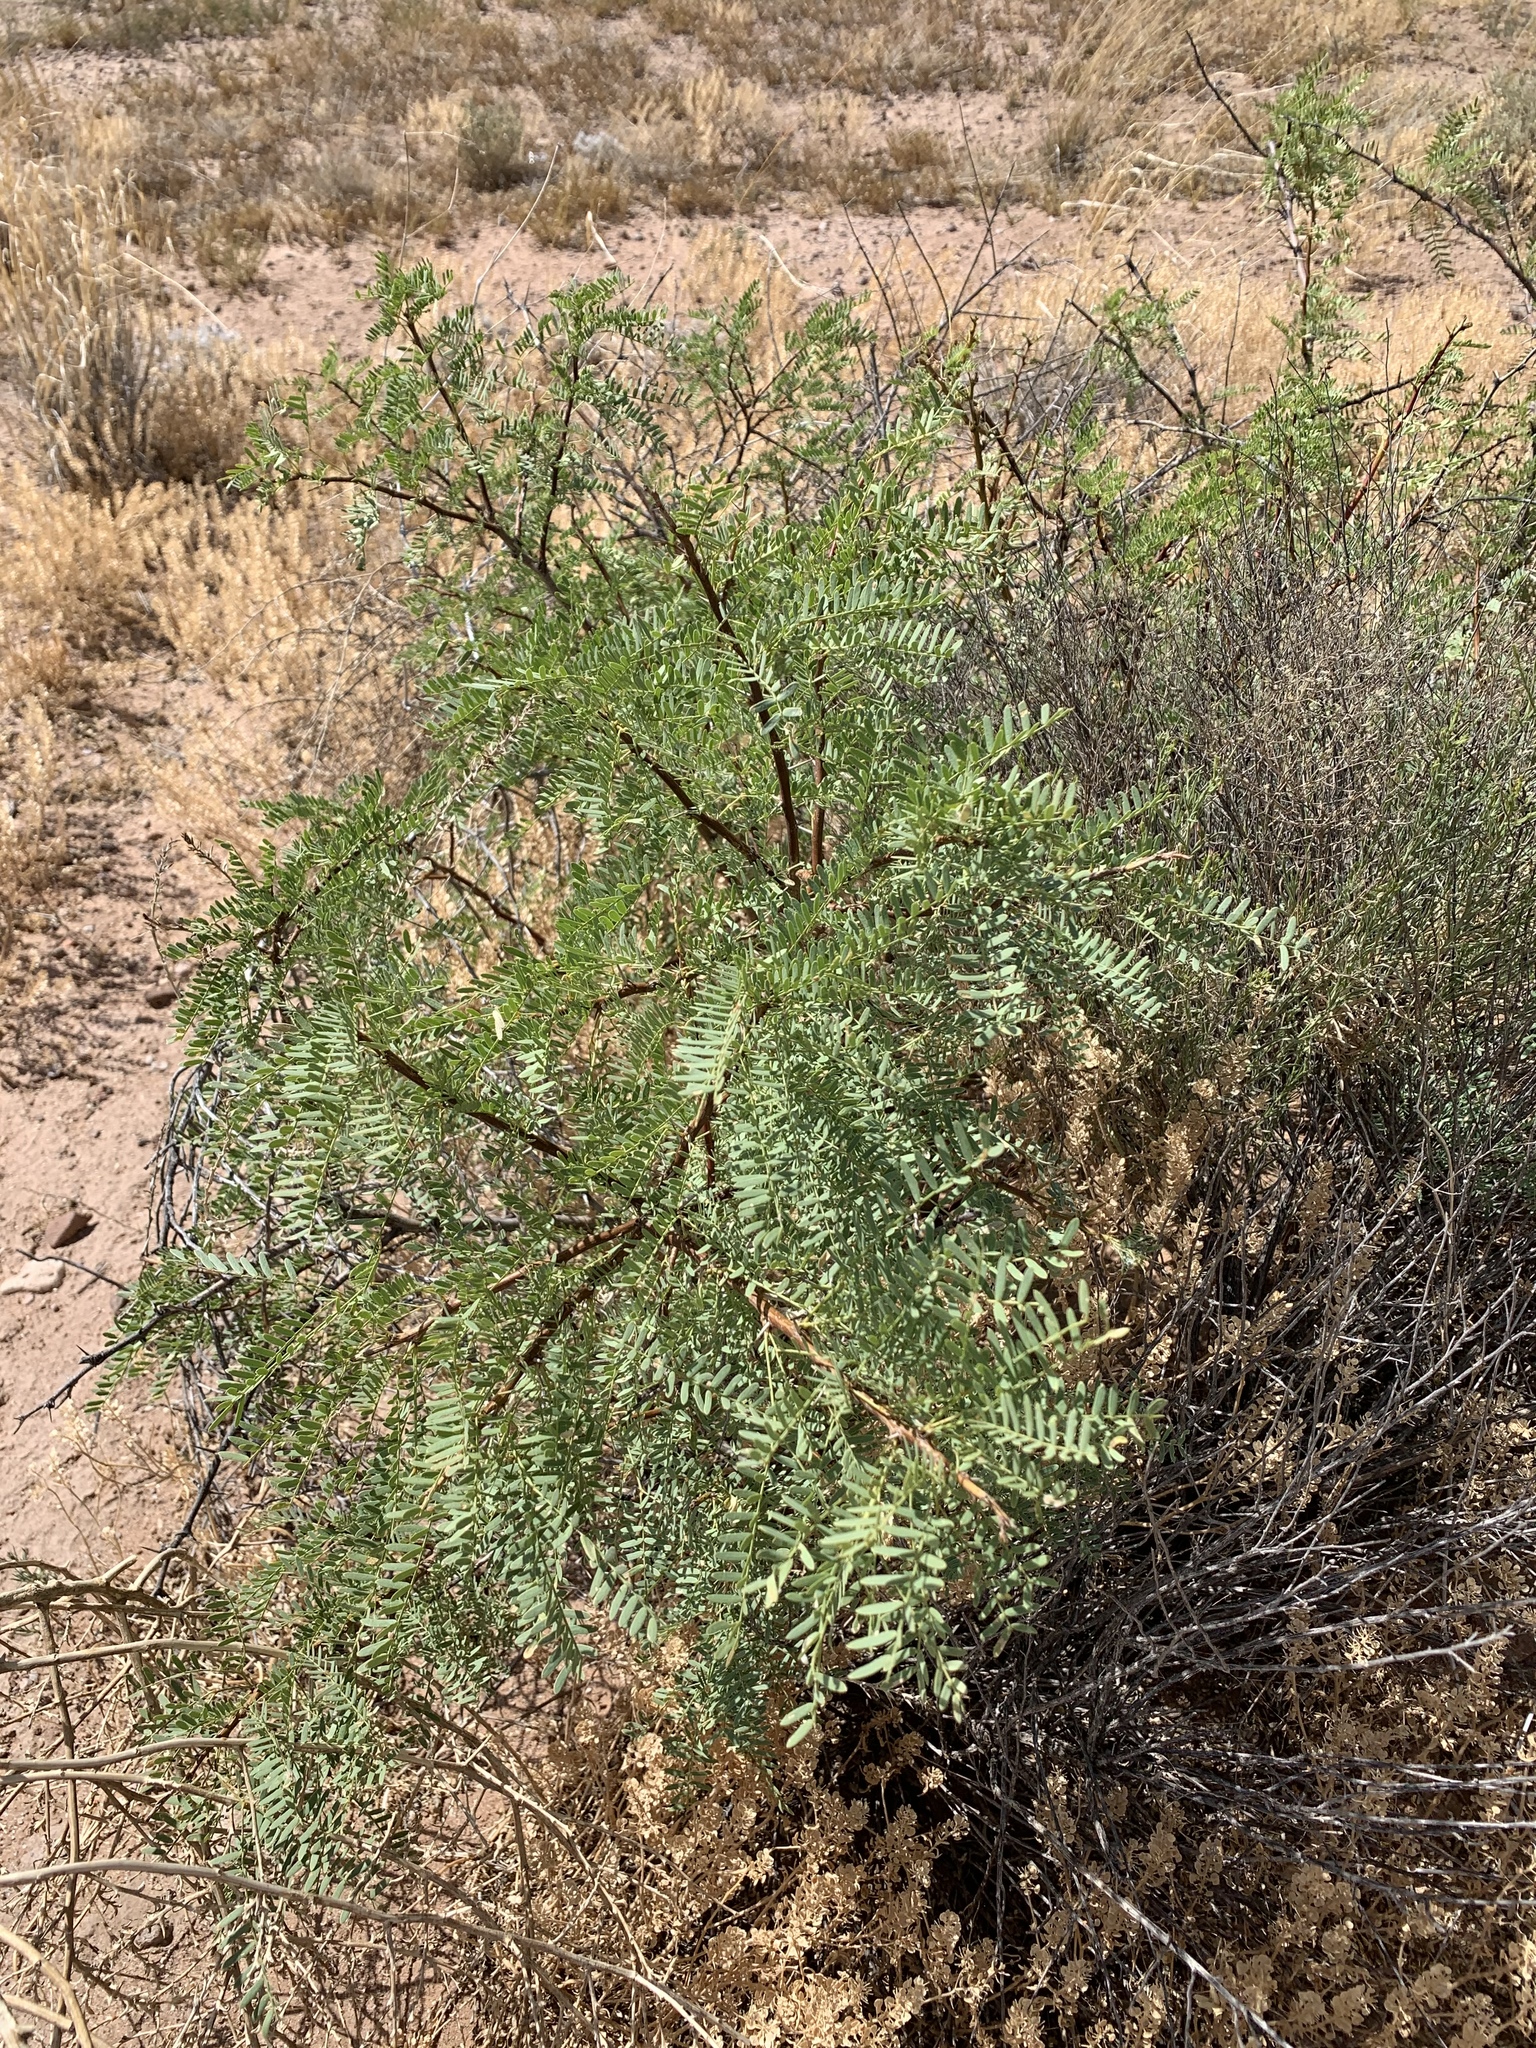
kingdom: Plantae
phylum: Tracheophyta
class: Magnoliopsida
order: Fabales
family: Fabaceae
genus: Prosopis
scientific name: Prosopis glandulosa
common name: Honey mesquite
